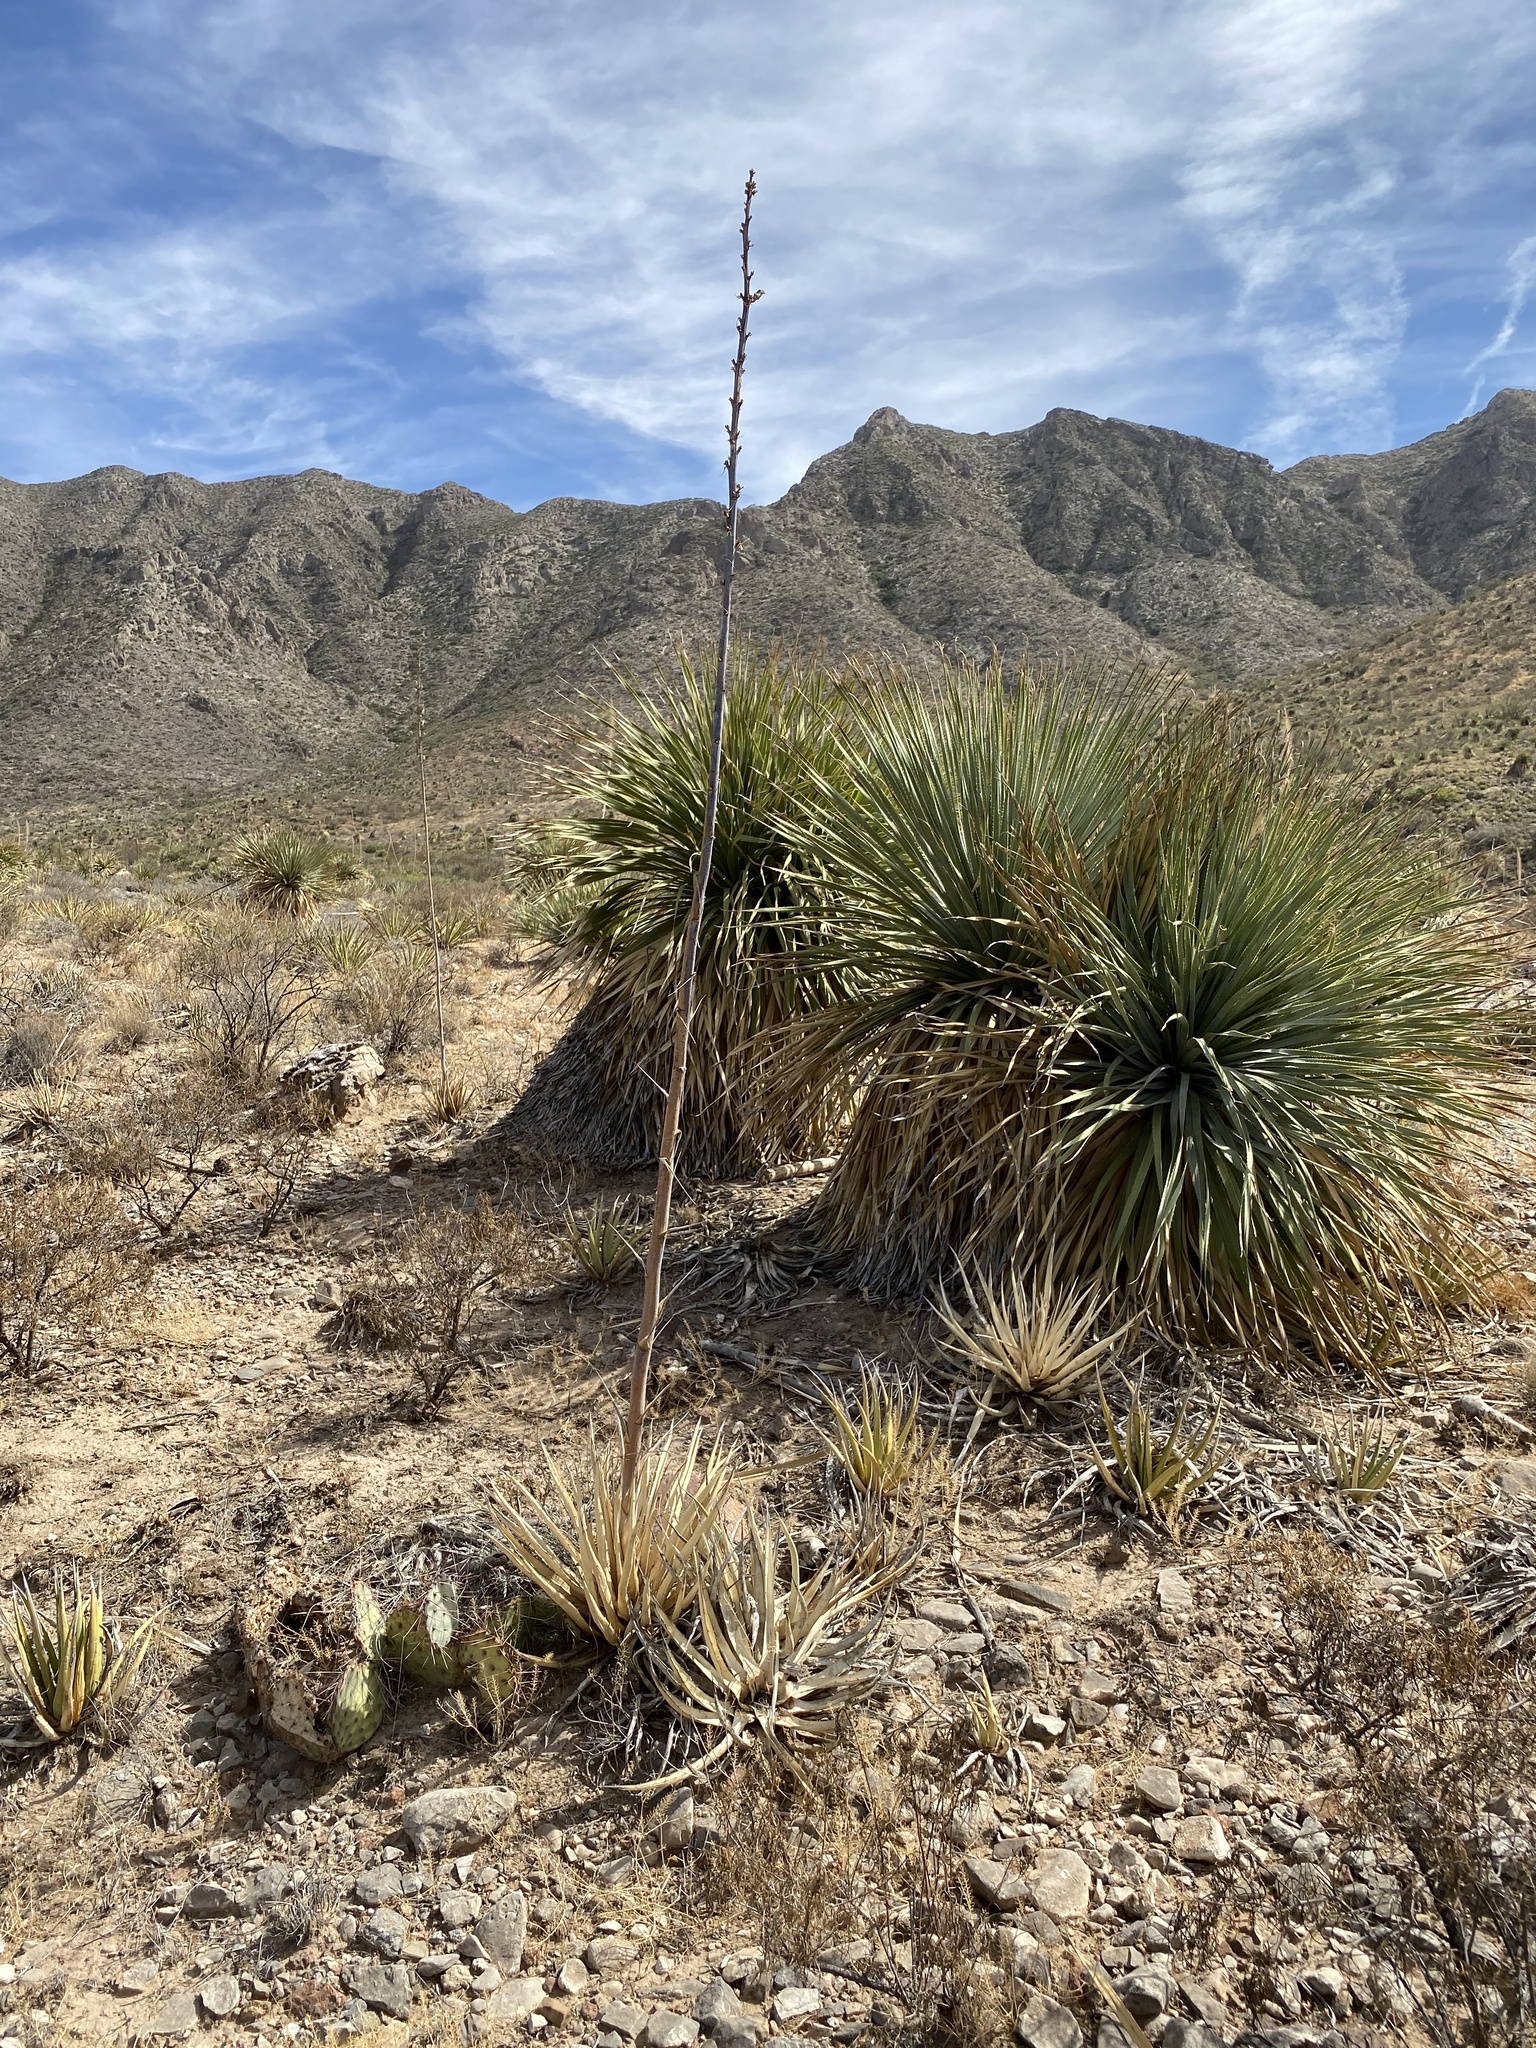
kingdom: Plantae
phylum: Tracheophyta
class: Liliopsida
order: Asparagales
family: Asparagaceae
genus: Dasylirion
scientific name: Dasylirion wheeleri
